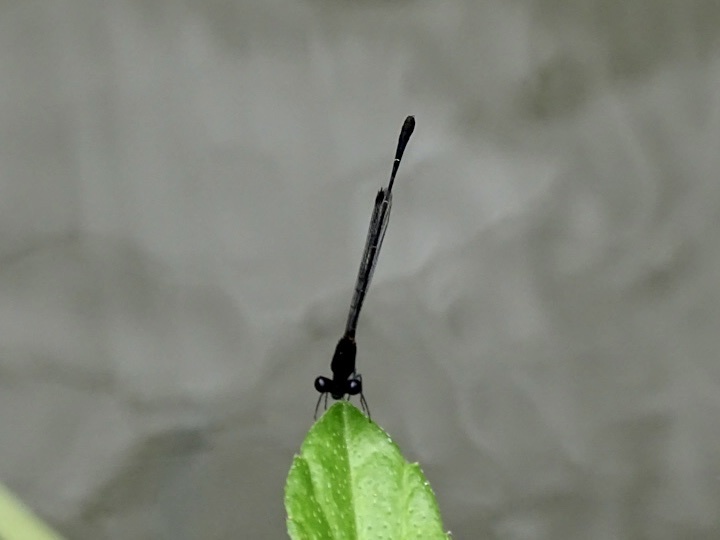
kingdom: Animalia
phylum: Arthropoda
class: Insecta
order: Odonata
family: Platycnemididae
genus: Prodasineura
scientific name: Prodasineura autumnalis
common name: Black threadtail
